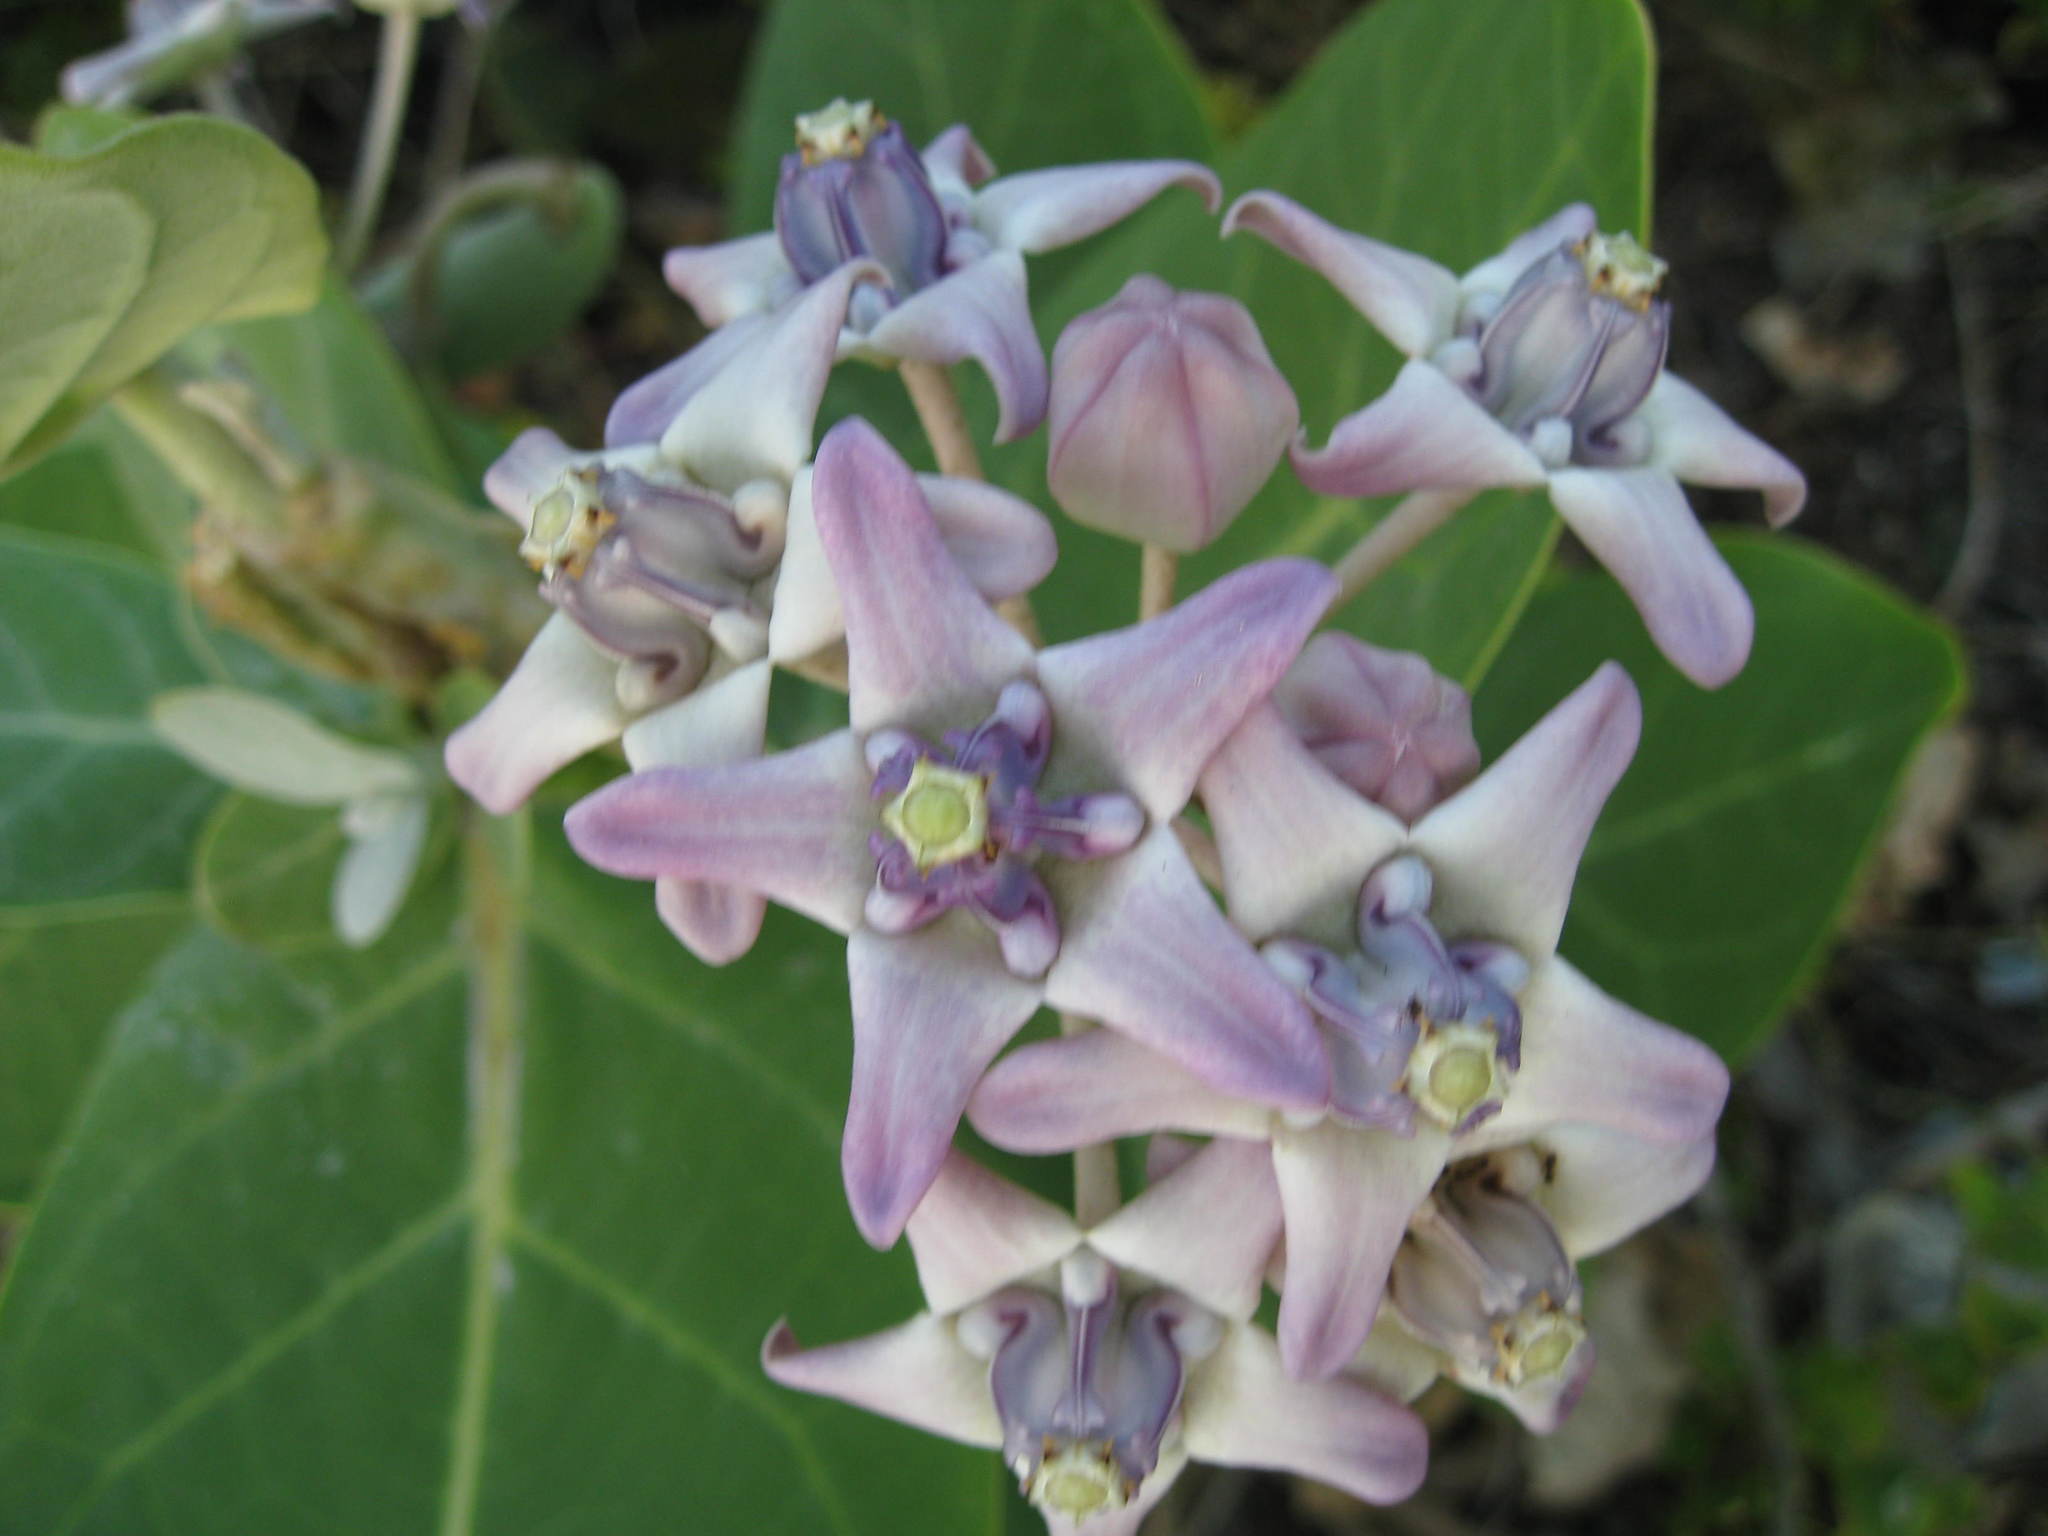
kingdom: Plantae
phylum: Tracheophyta
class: Magnoliopsida
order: Gentianales
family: Apocynaceae
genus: Calotropis
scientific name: Calotropis gigantea
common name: Crown flower
